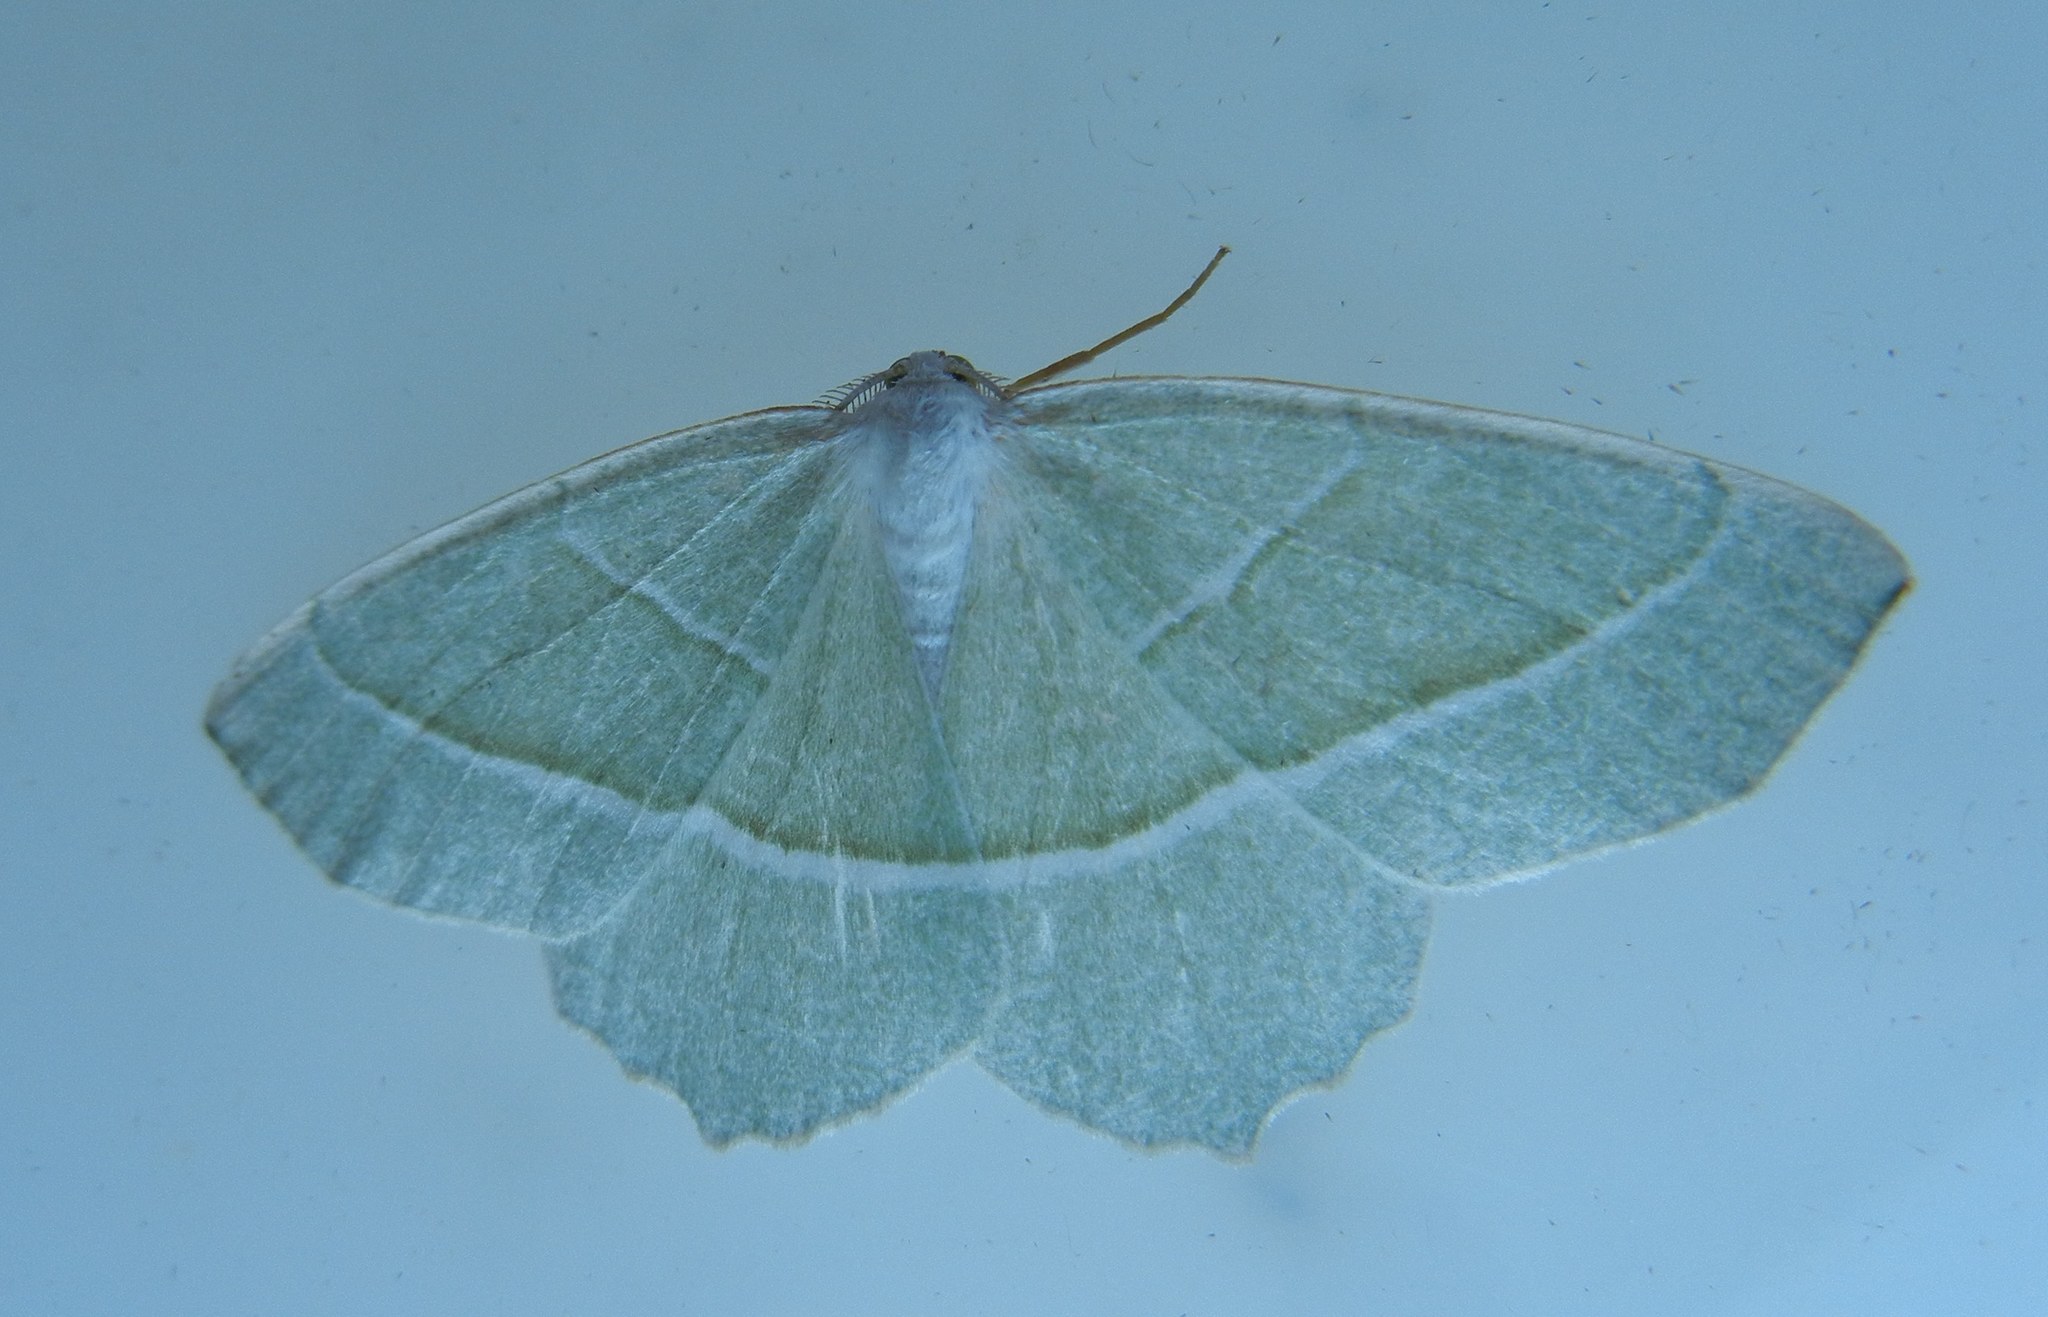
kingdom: Animalia
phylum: Arthropoda
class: Insecta
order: Lepidoptera
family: Geometridae
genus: Campaea
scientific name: Campaea margaritaria
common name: Light emerald
